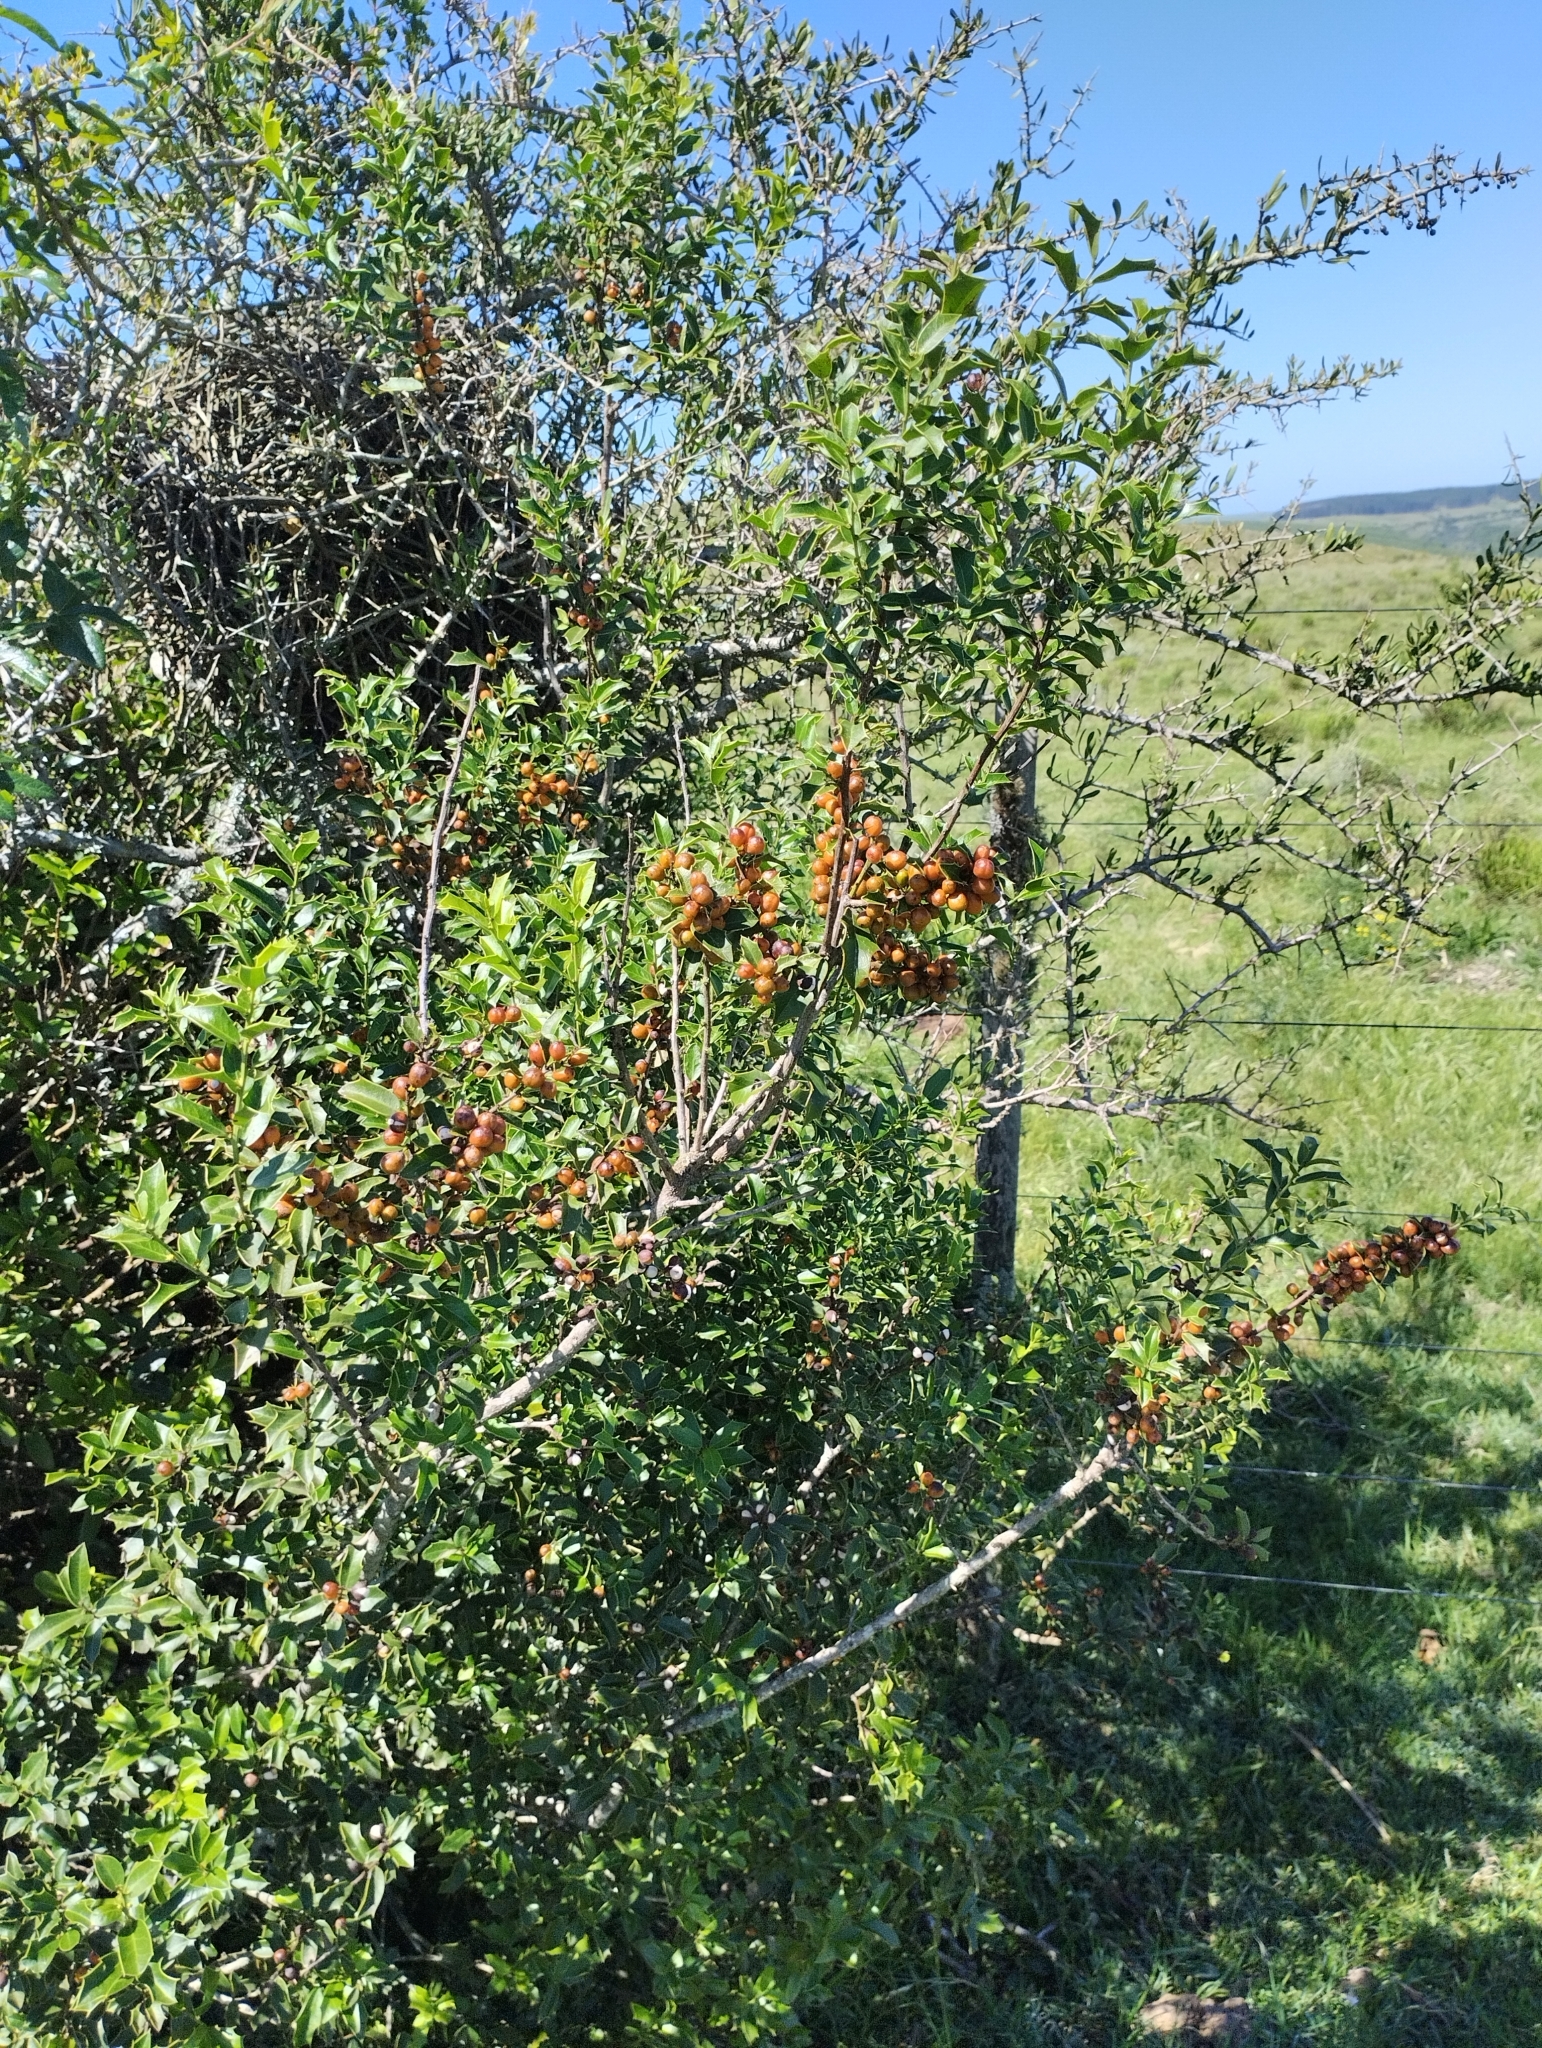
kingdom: Plantae
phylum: Tracheophyta
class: Magnoliopsida
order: Celastrales
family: Celastraceae
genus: Monteverdia
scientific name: Monteverdia
